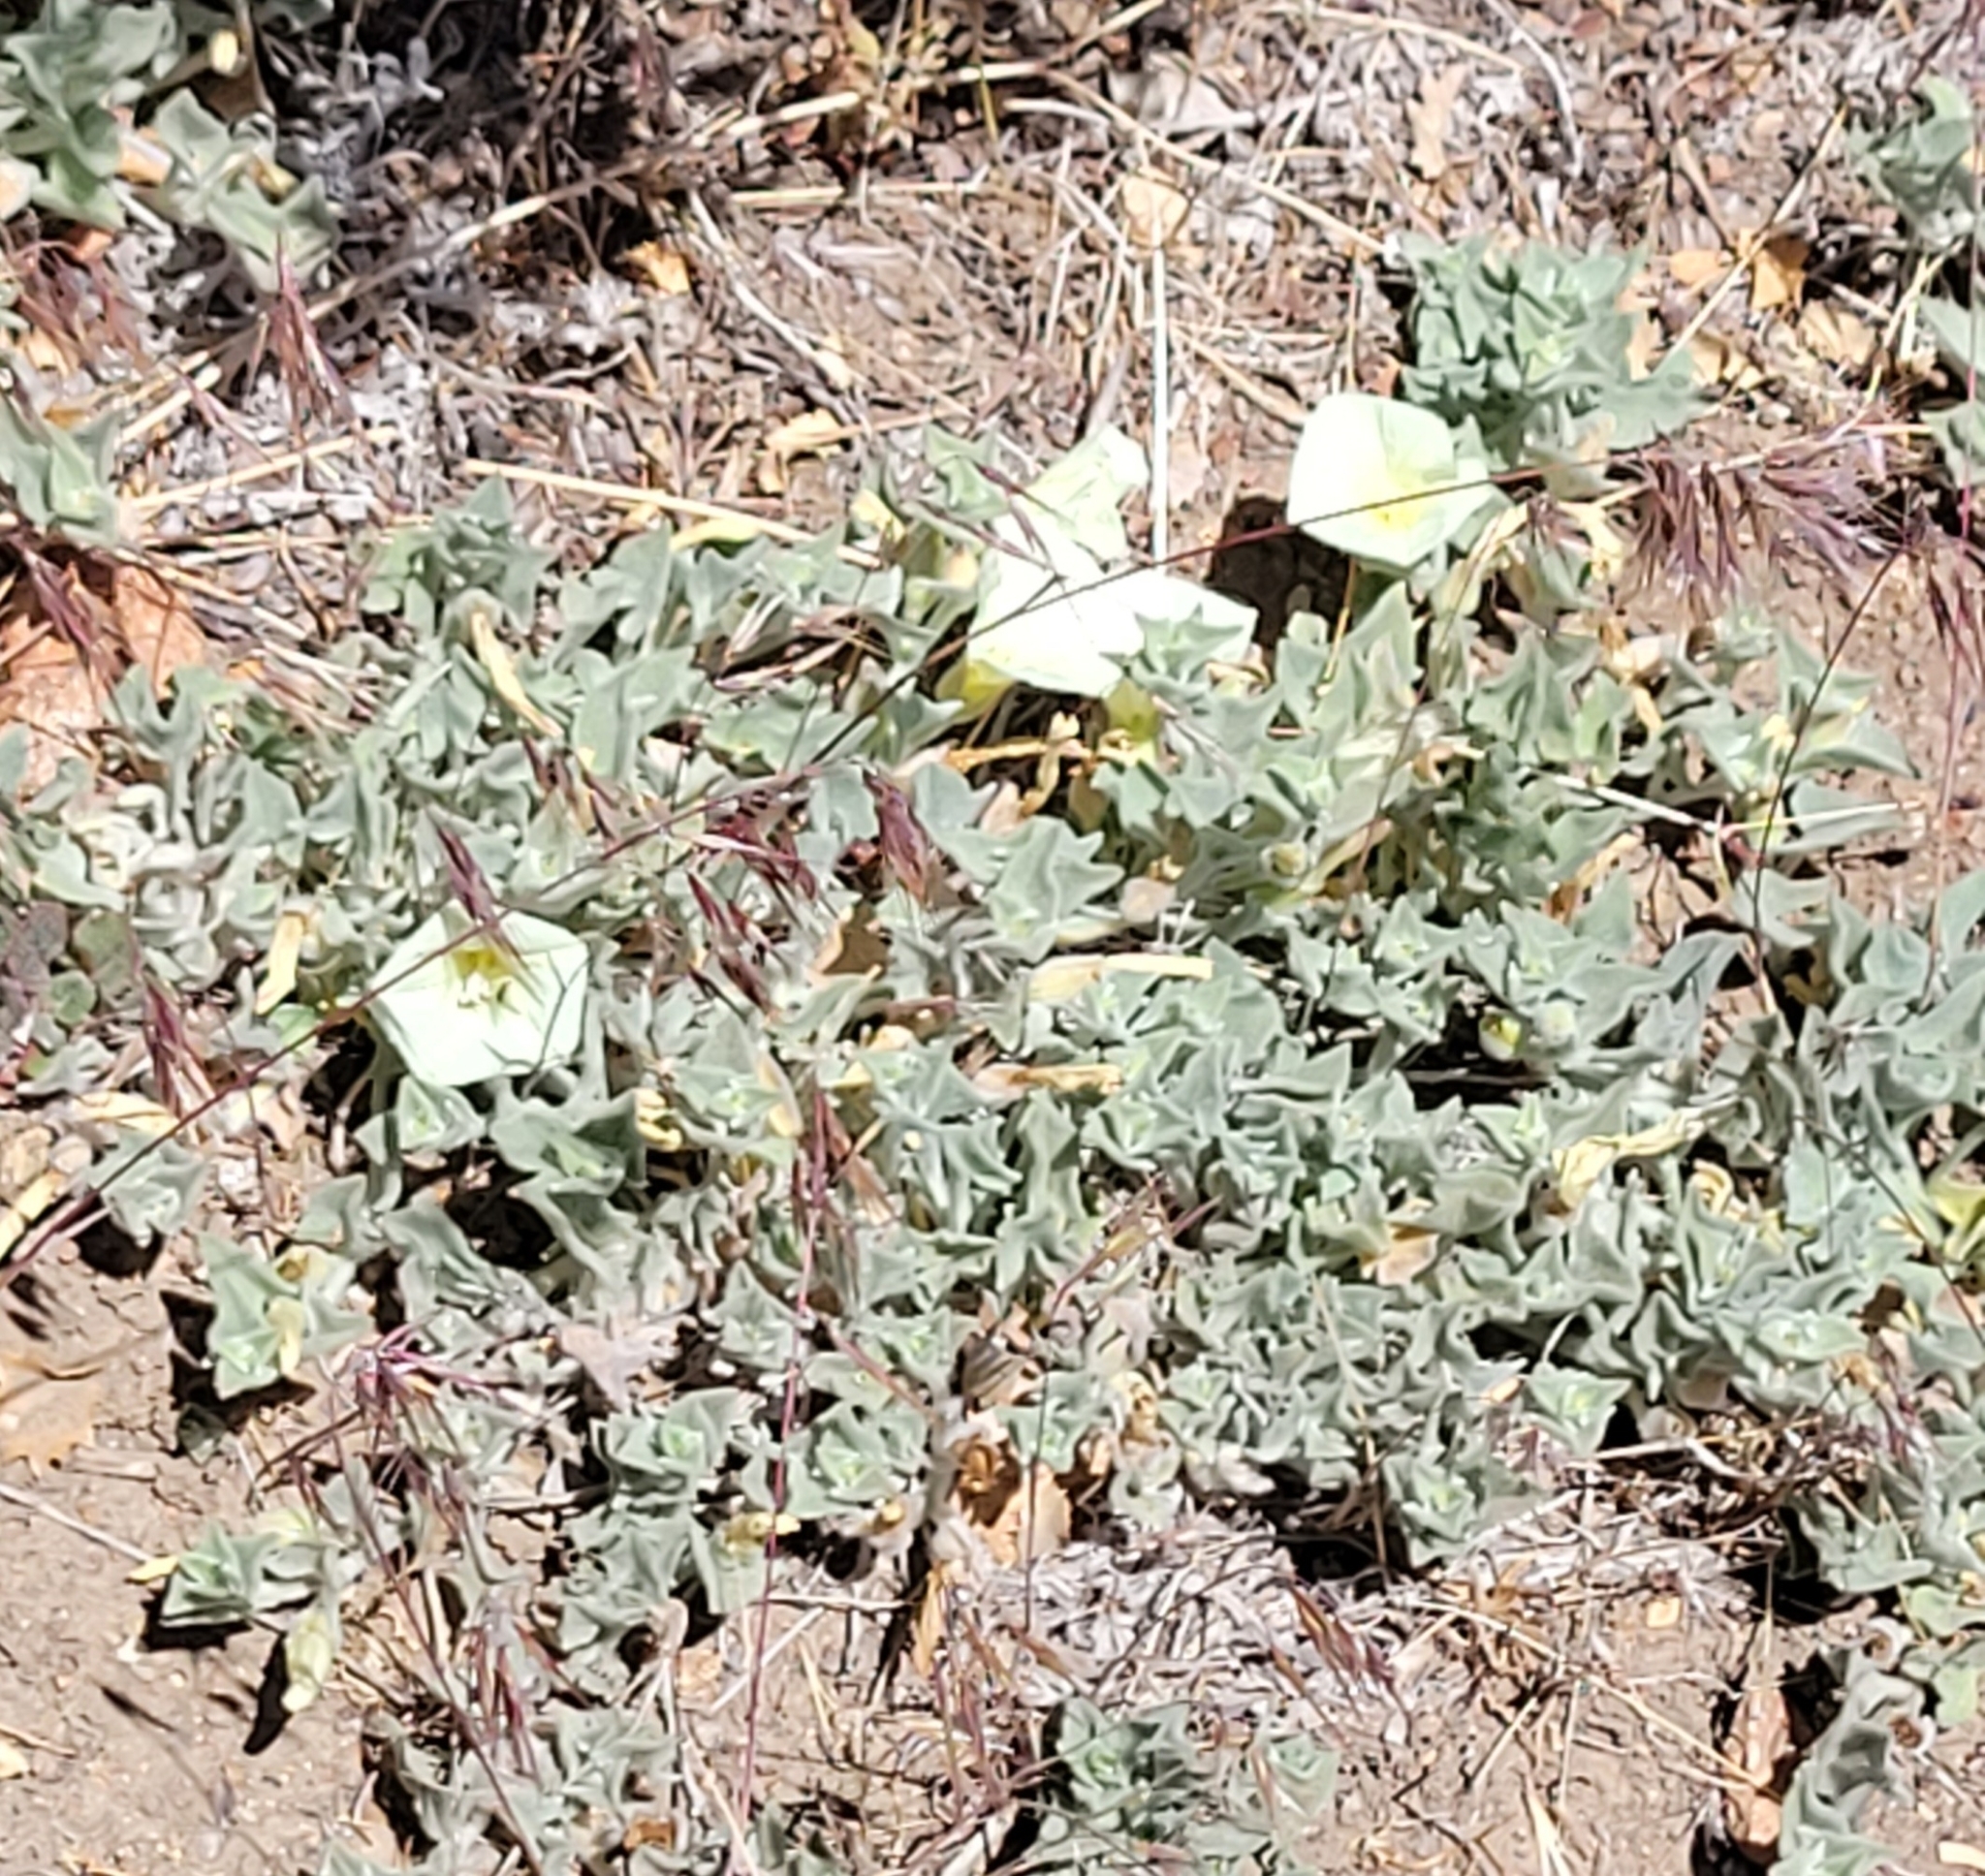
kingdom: Plantae
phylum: Tracheophyta
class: Magnoliopsida
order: Solanales
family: Convolvulaceae
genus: Calystegia
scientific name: Calystegia malacophylla
